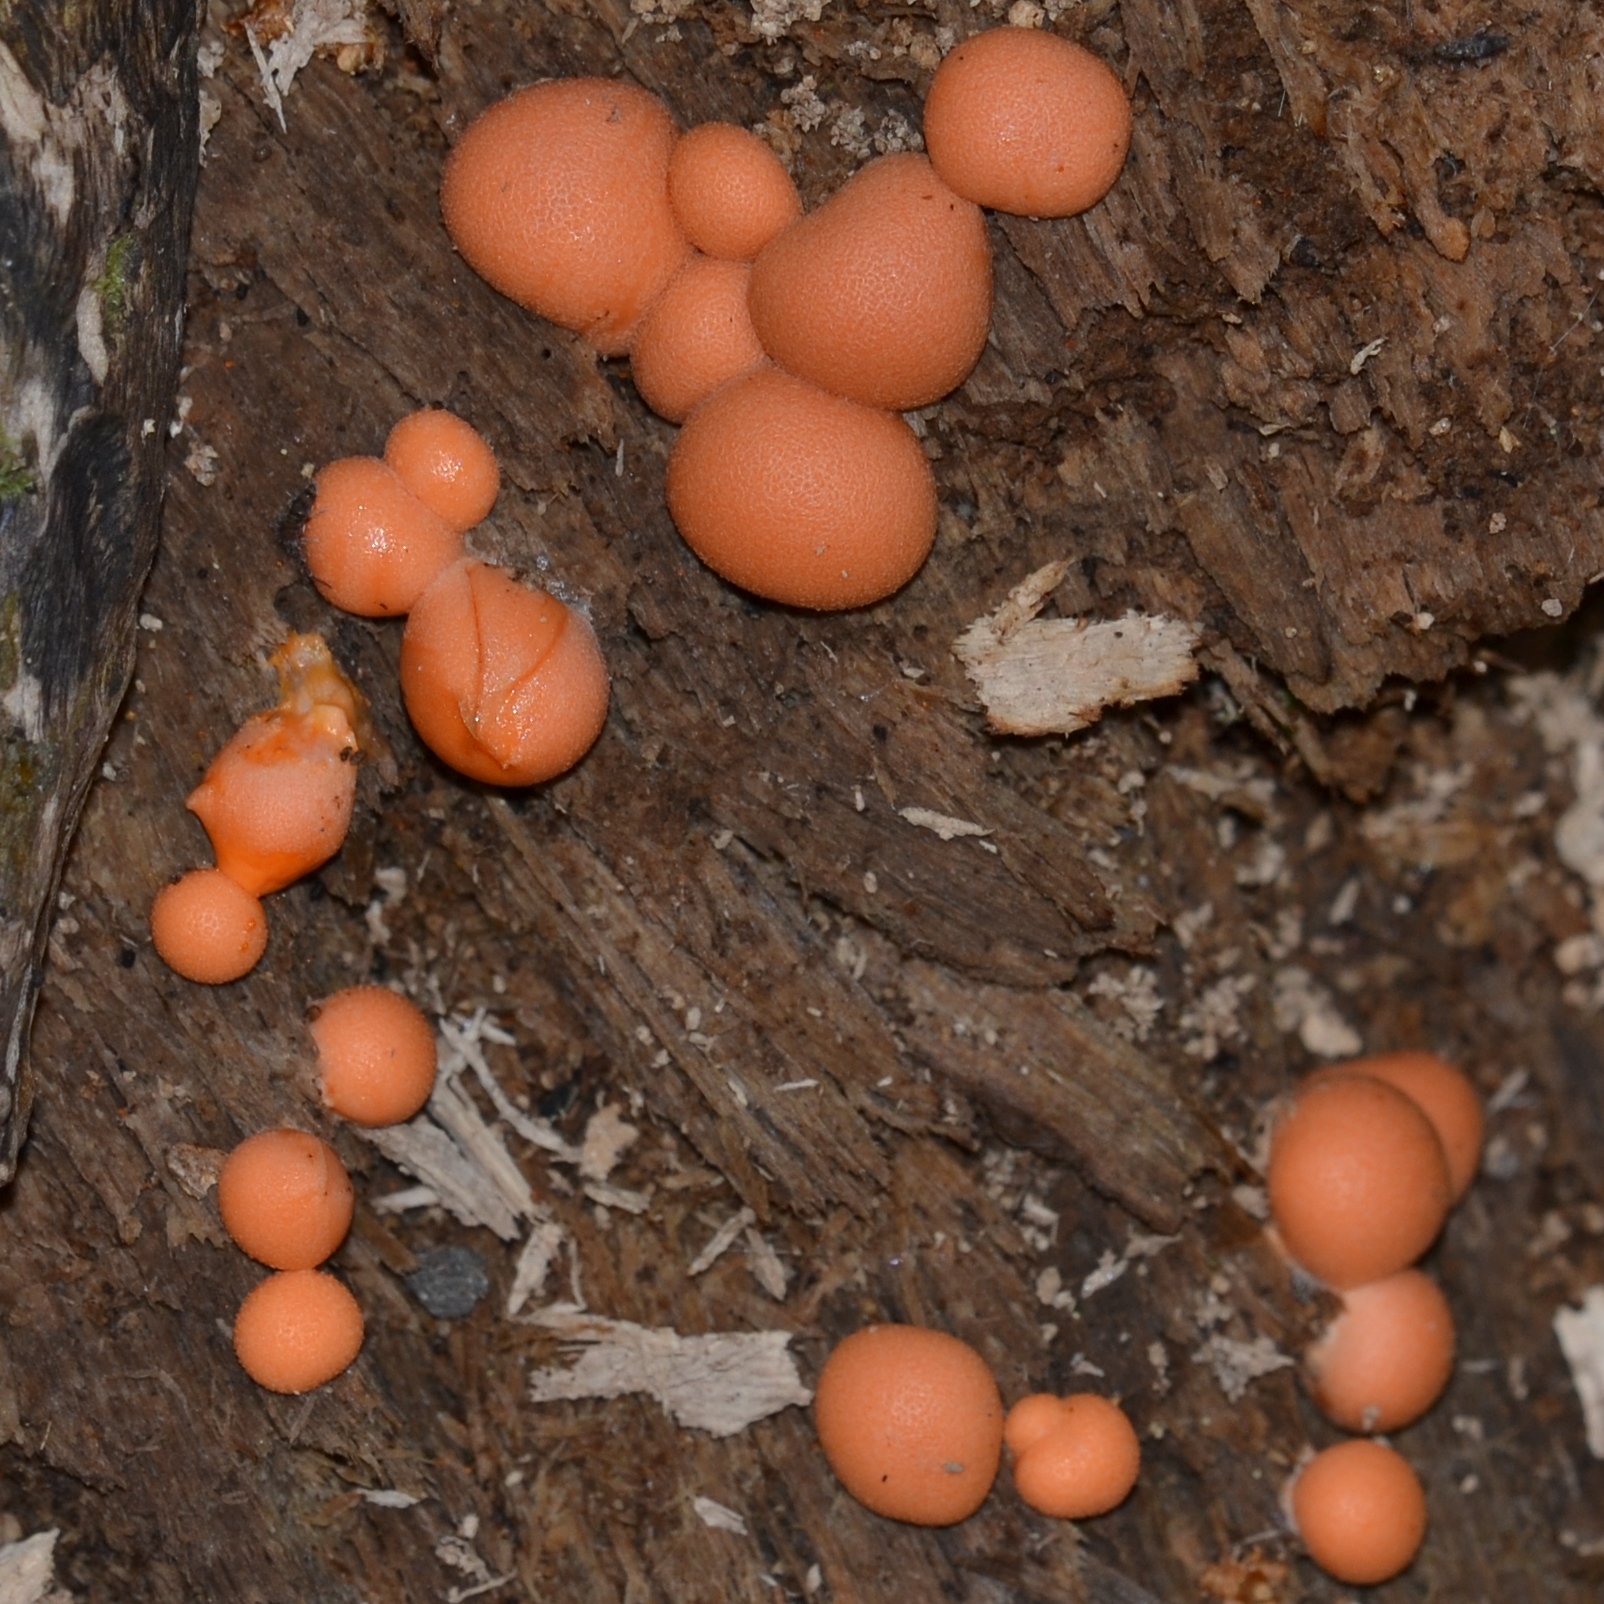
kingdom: Protozoa
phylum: Mycetozoa
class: Myxomycetes
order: Cribrariales
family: Tubiferaceae
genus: Lycogala
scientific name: Lycogala epidendrum
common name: Wolf's milk
